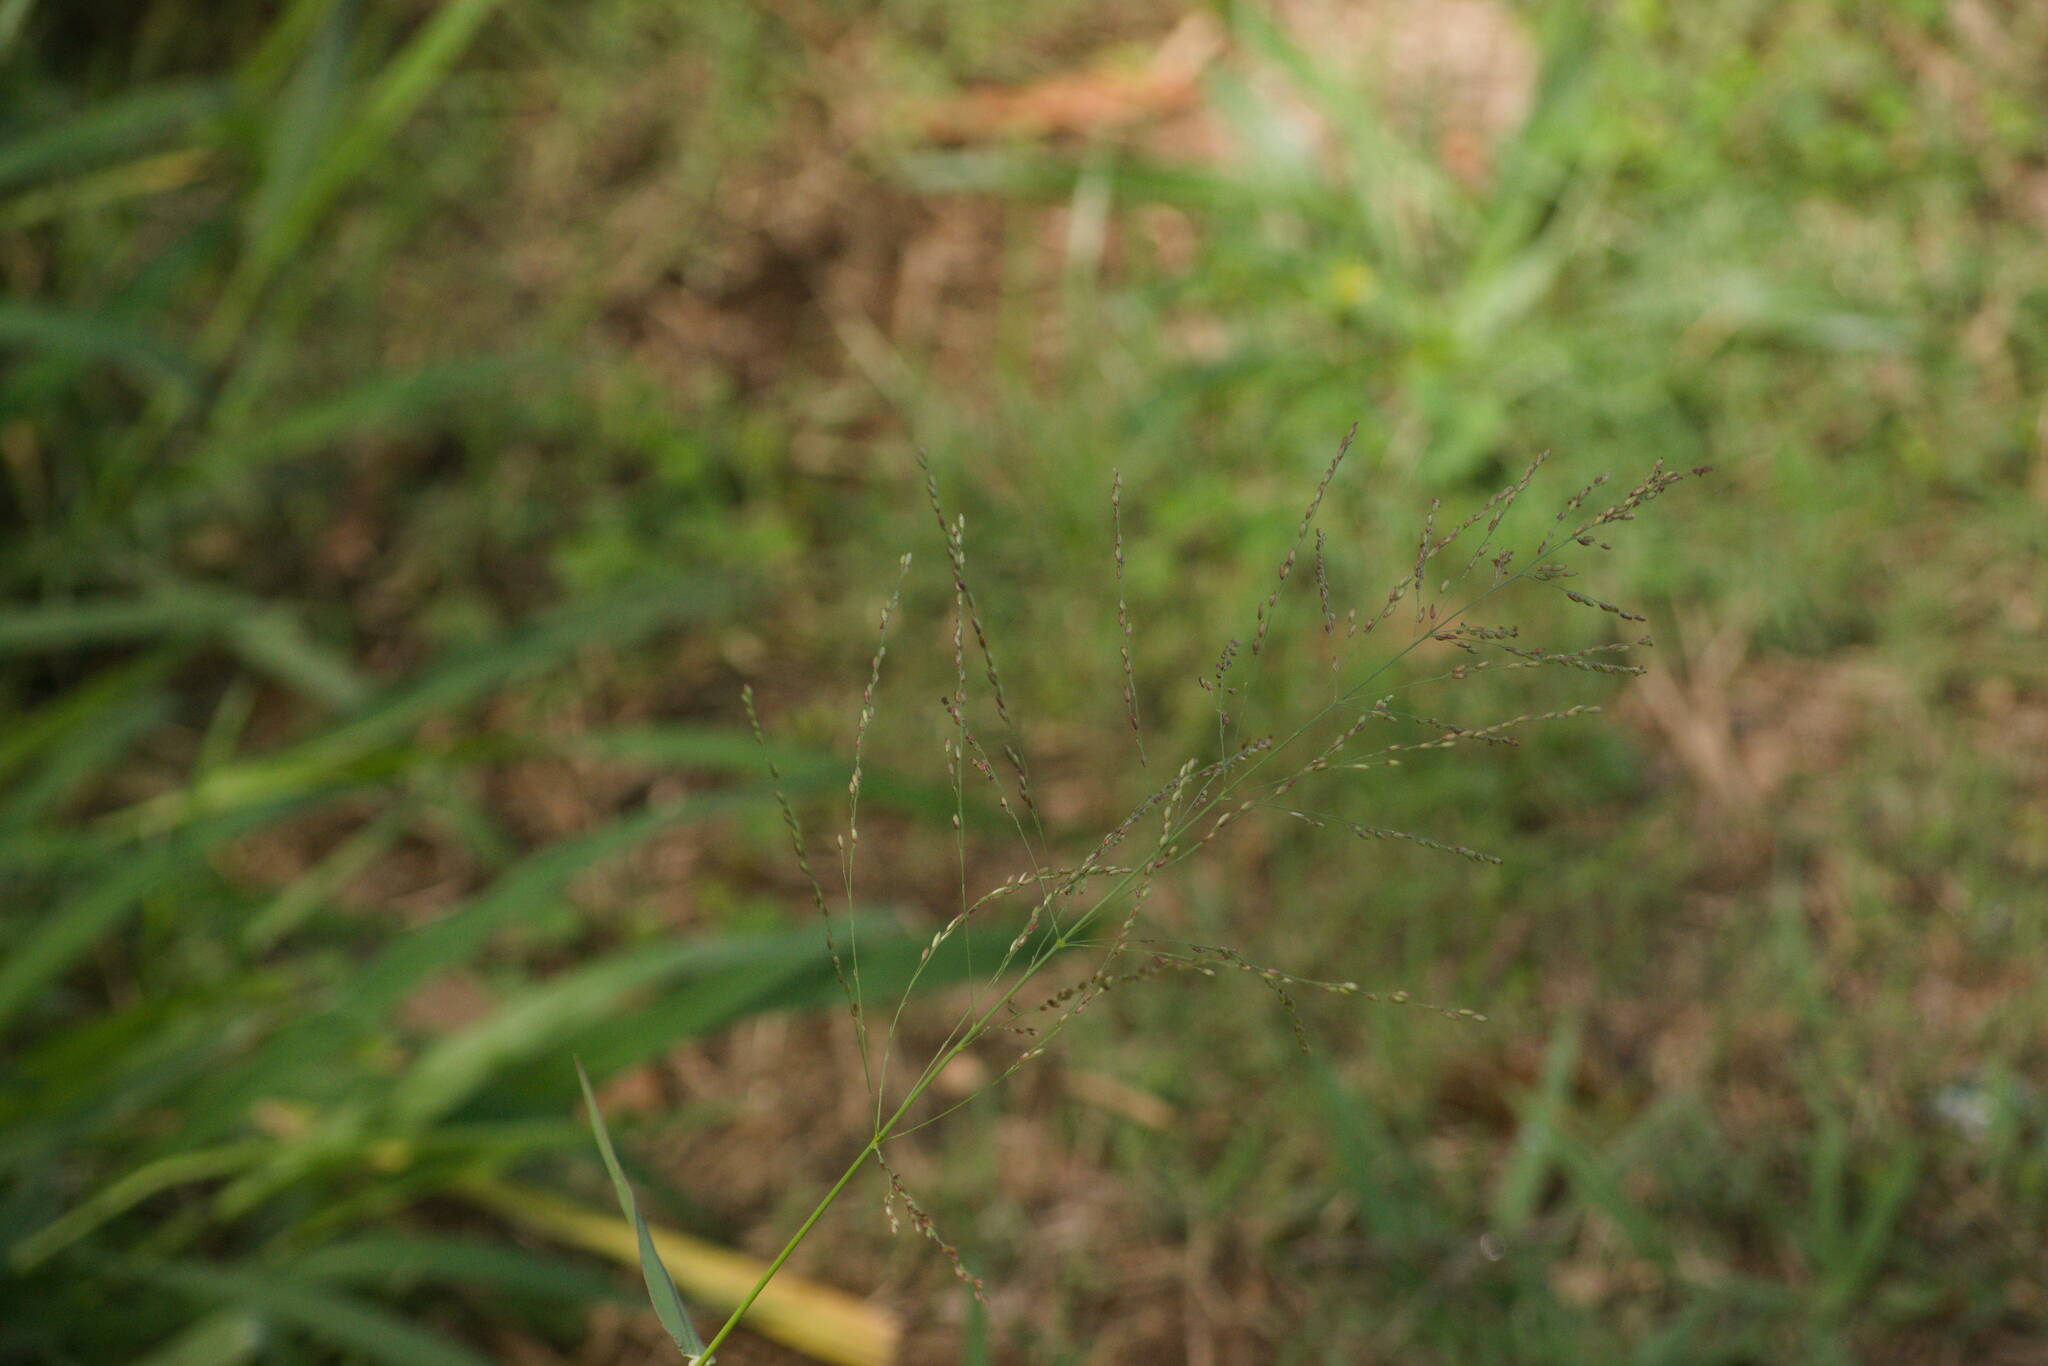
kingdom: Plantae
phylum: Tracheophyta
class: Liliopsida
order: Poales
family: Poaceae
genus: Megathyrsus
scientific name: Megathyrsus maximus
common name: Guineagrass
